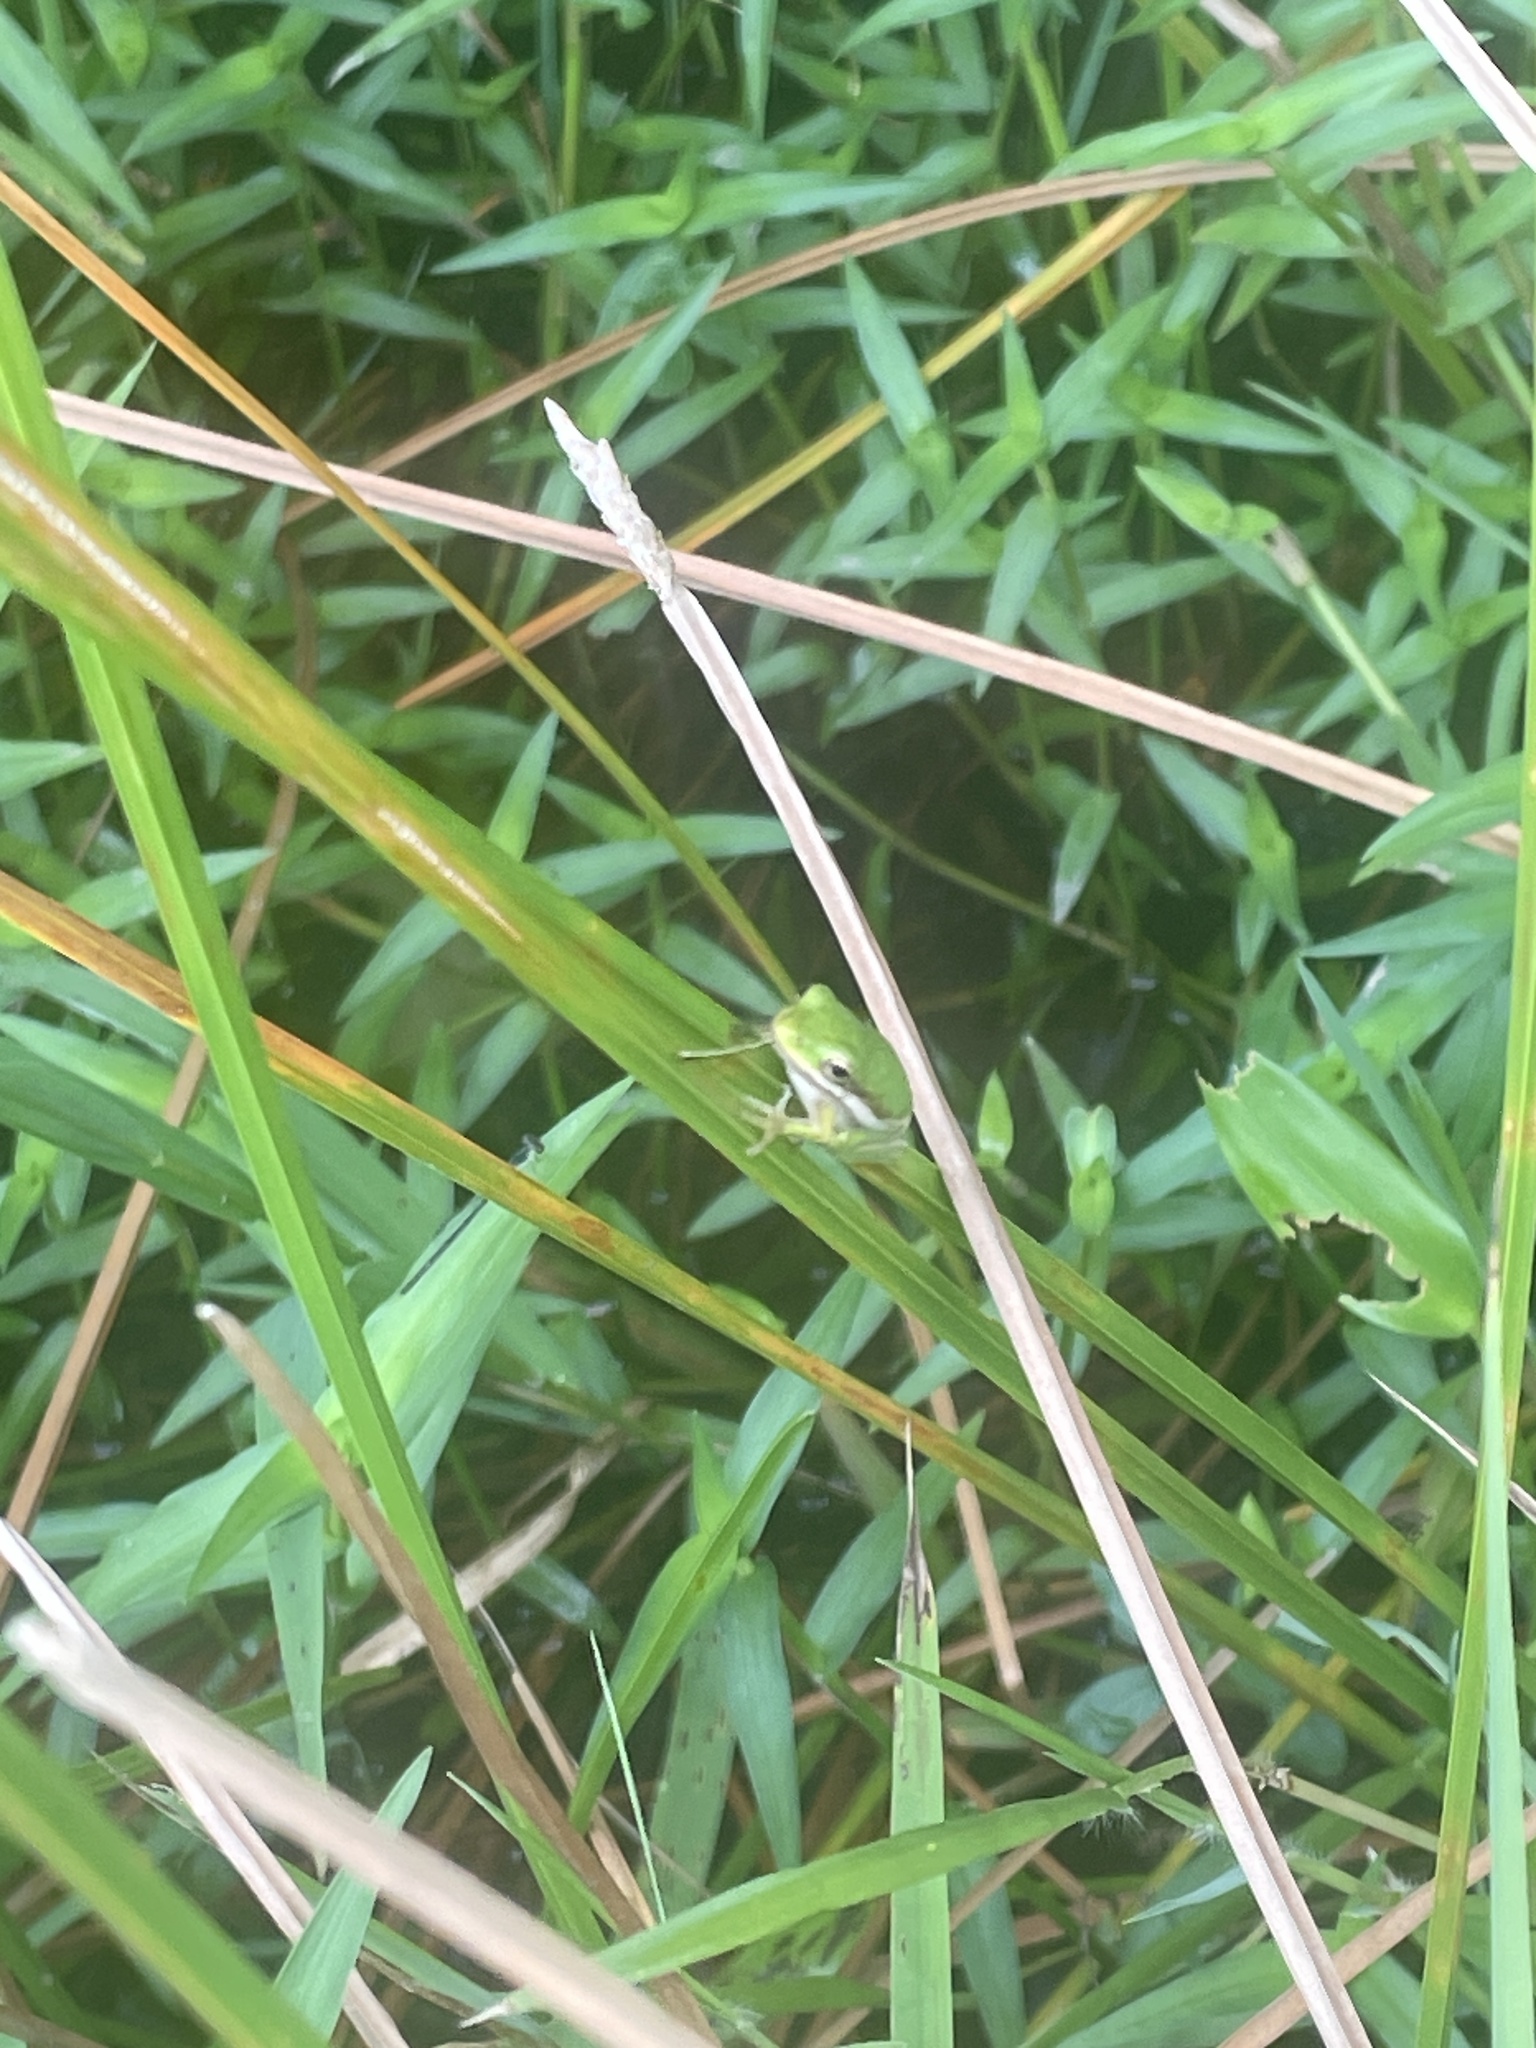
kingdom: Animalia
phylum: Chordata
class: Amphibia
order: Anura
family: Hylidae
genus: Dryophytes
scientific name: Dryophytes cinereus
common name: Green treefrog
